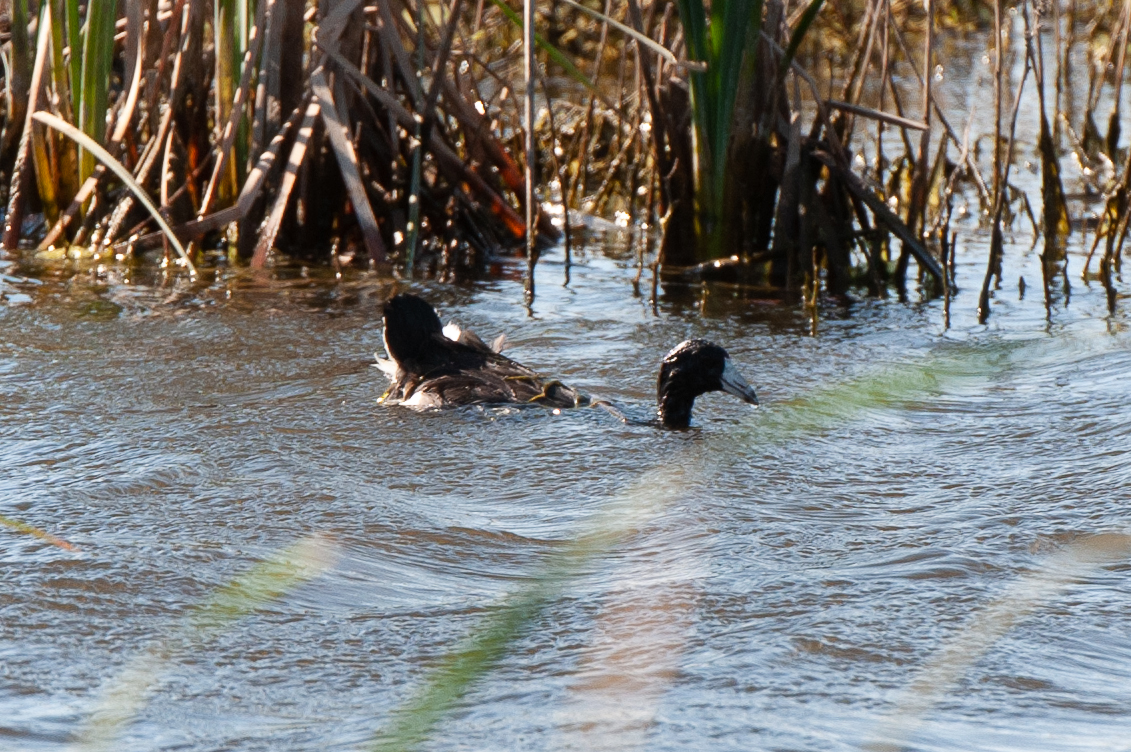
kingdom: Animalia
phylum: Chordata
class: Aves
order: Gruiformes
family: Rallidae
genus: Fulica
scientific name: Fulica americana
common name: American coot
